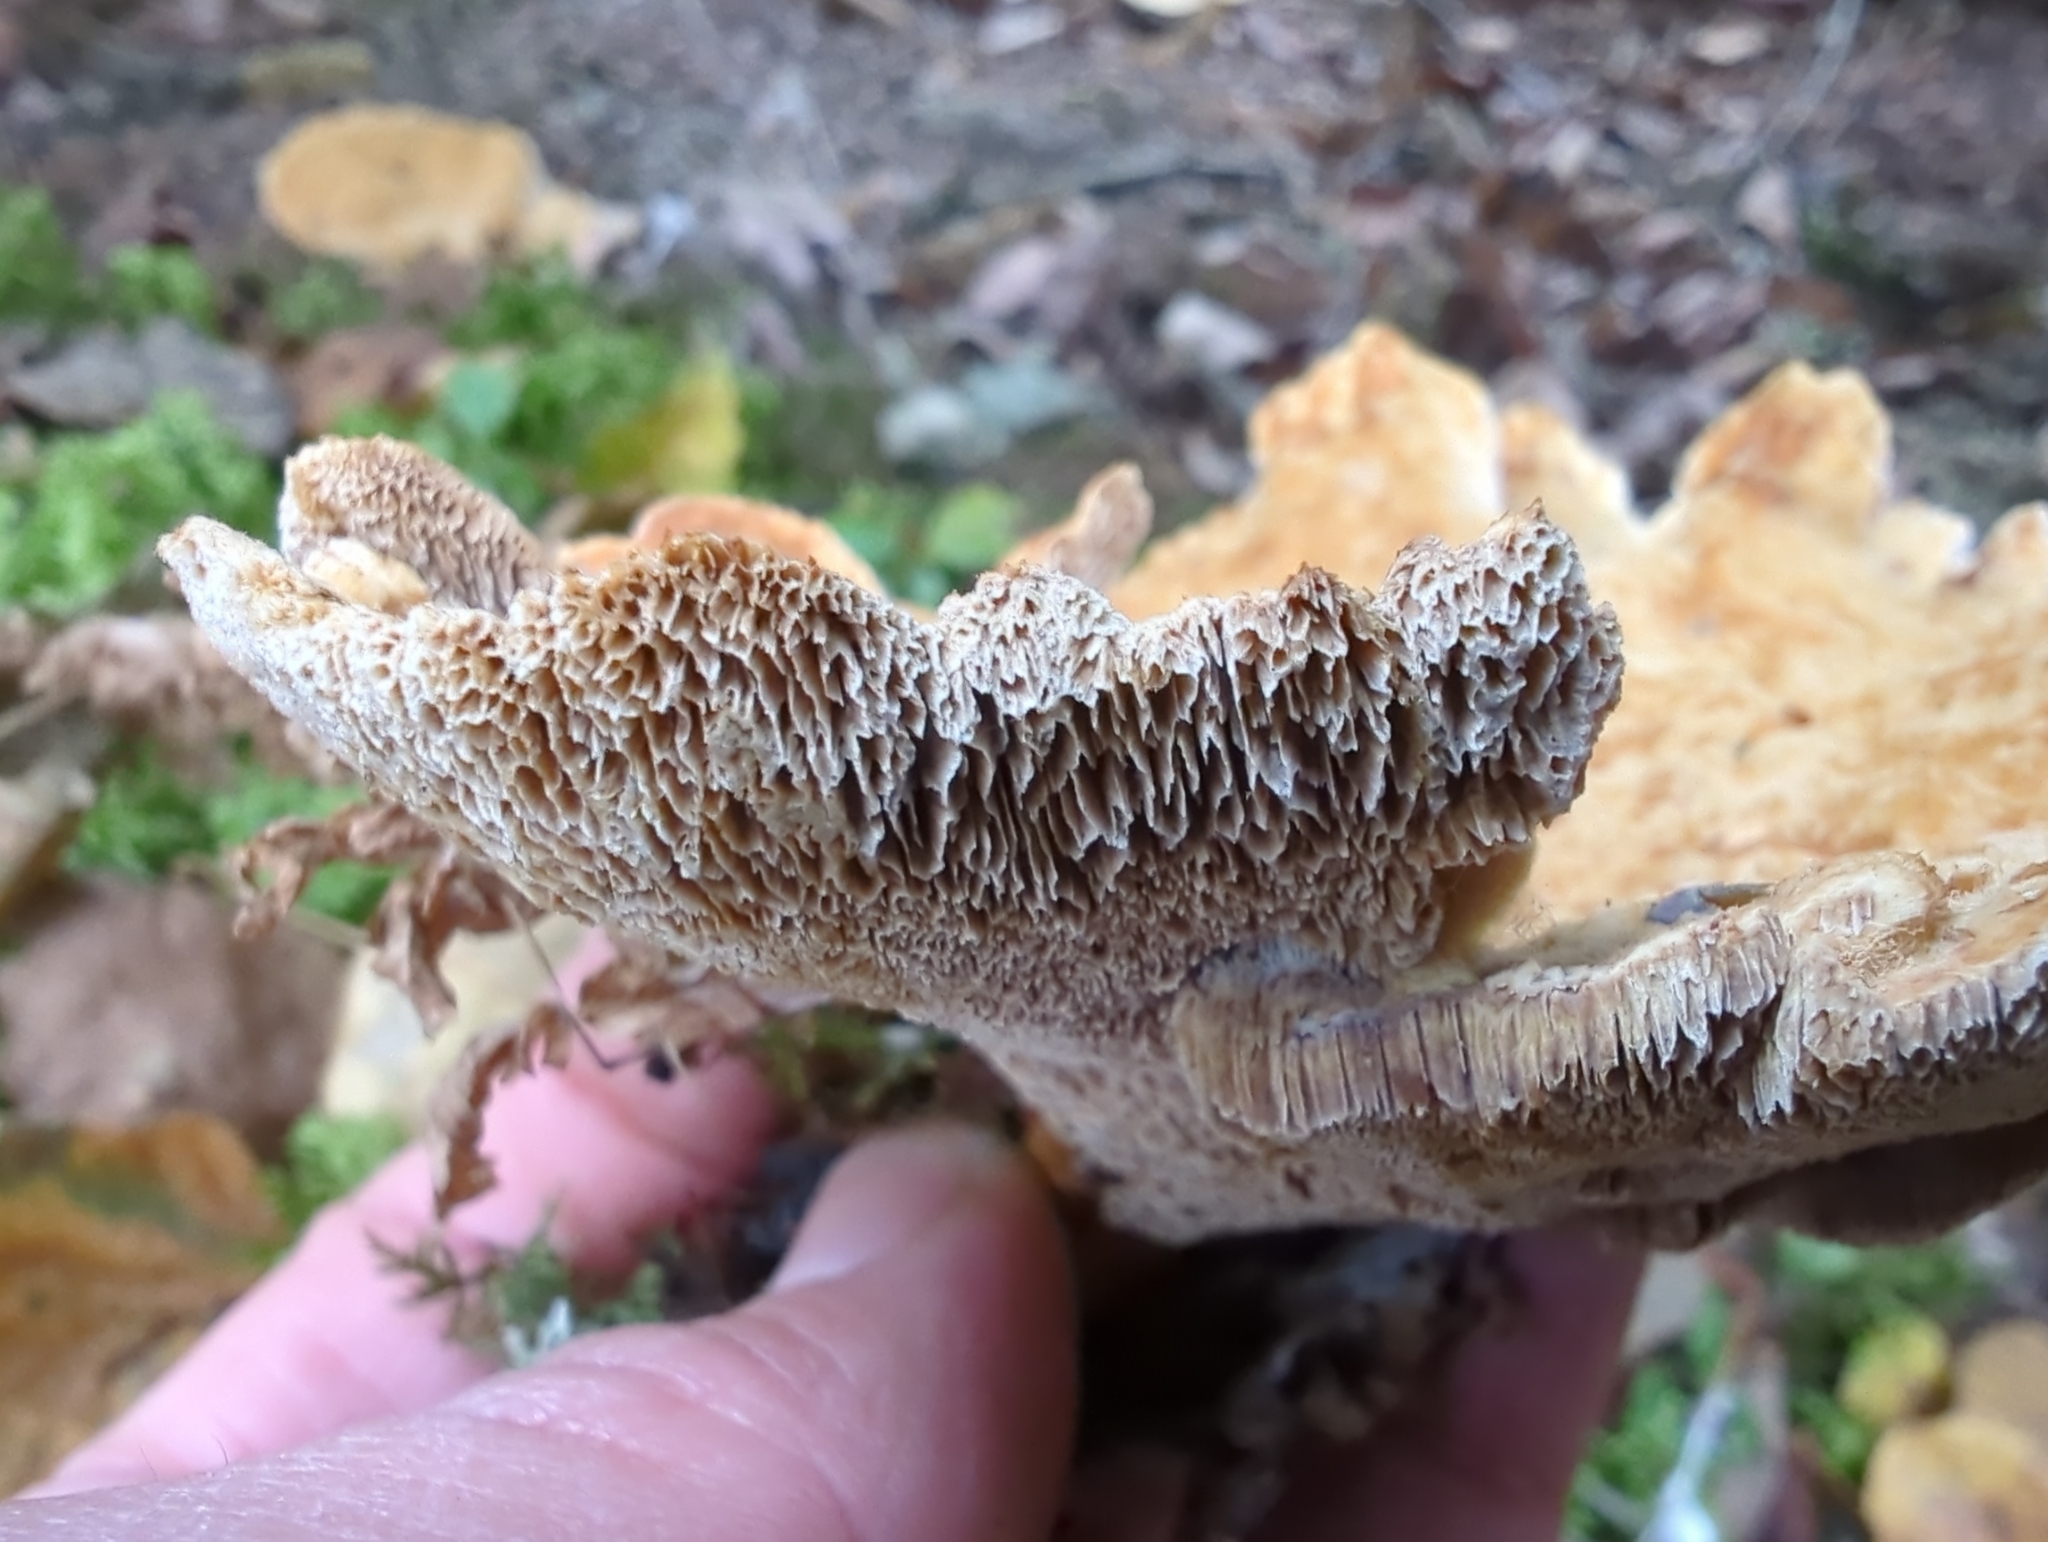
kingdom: Fungi
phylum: Basidiomycota
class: Agaricomycetes
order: Hymenochaetales
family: Hymenochaetaceae
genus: Onnia
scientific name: Onnia tomentosa
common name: Velvet rosette
